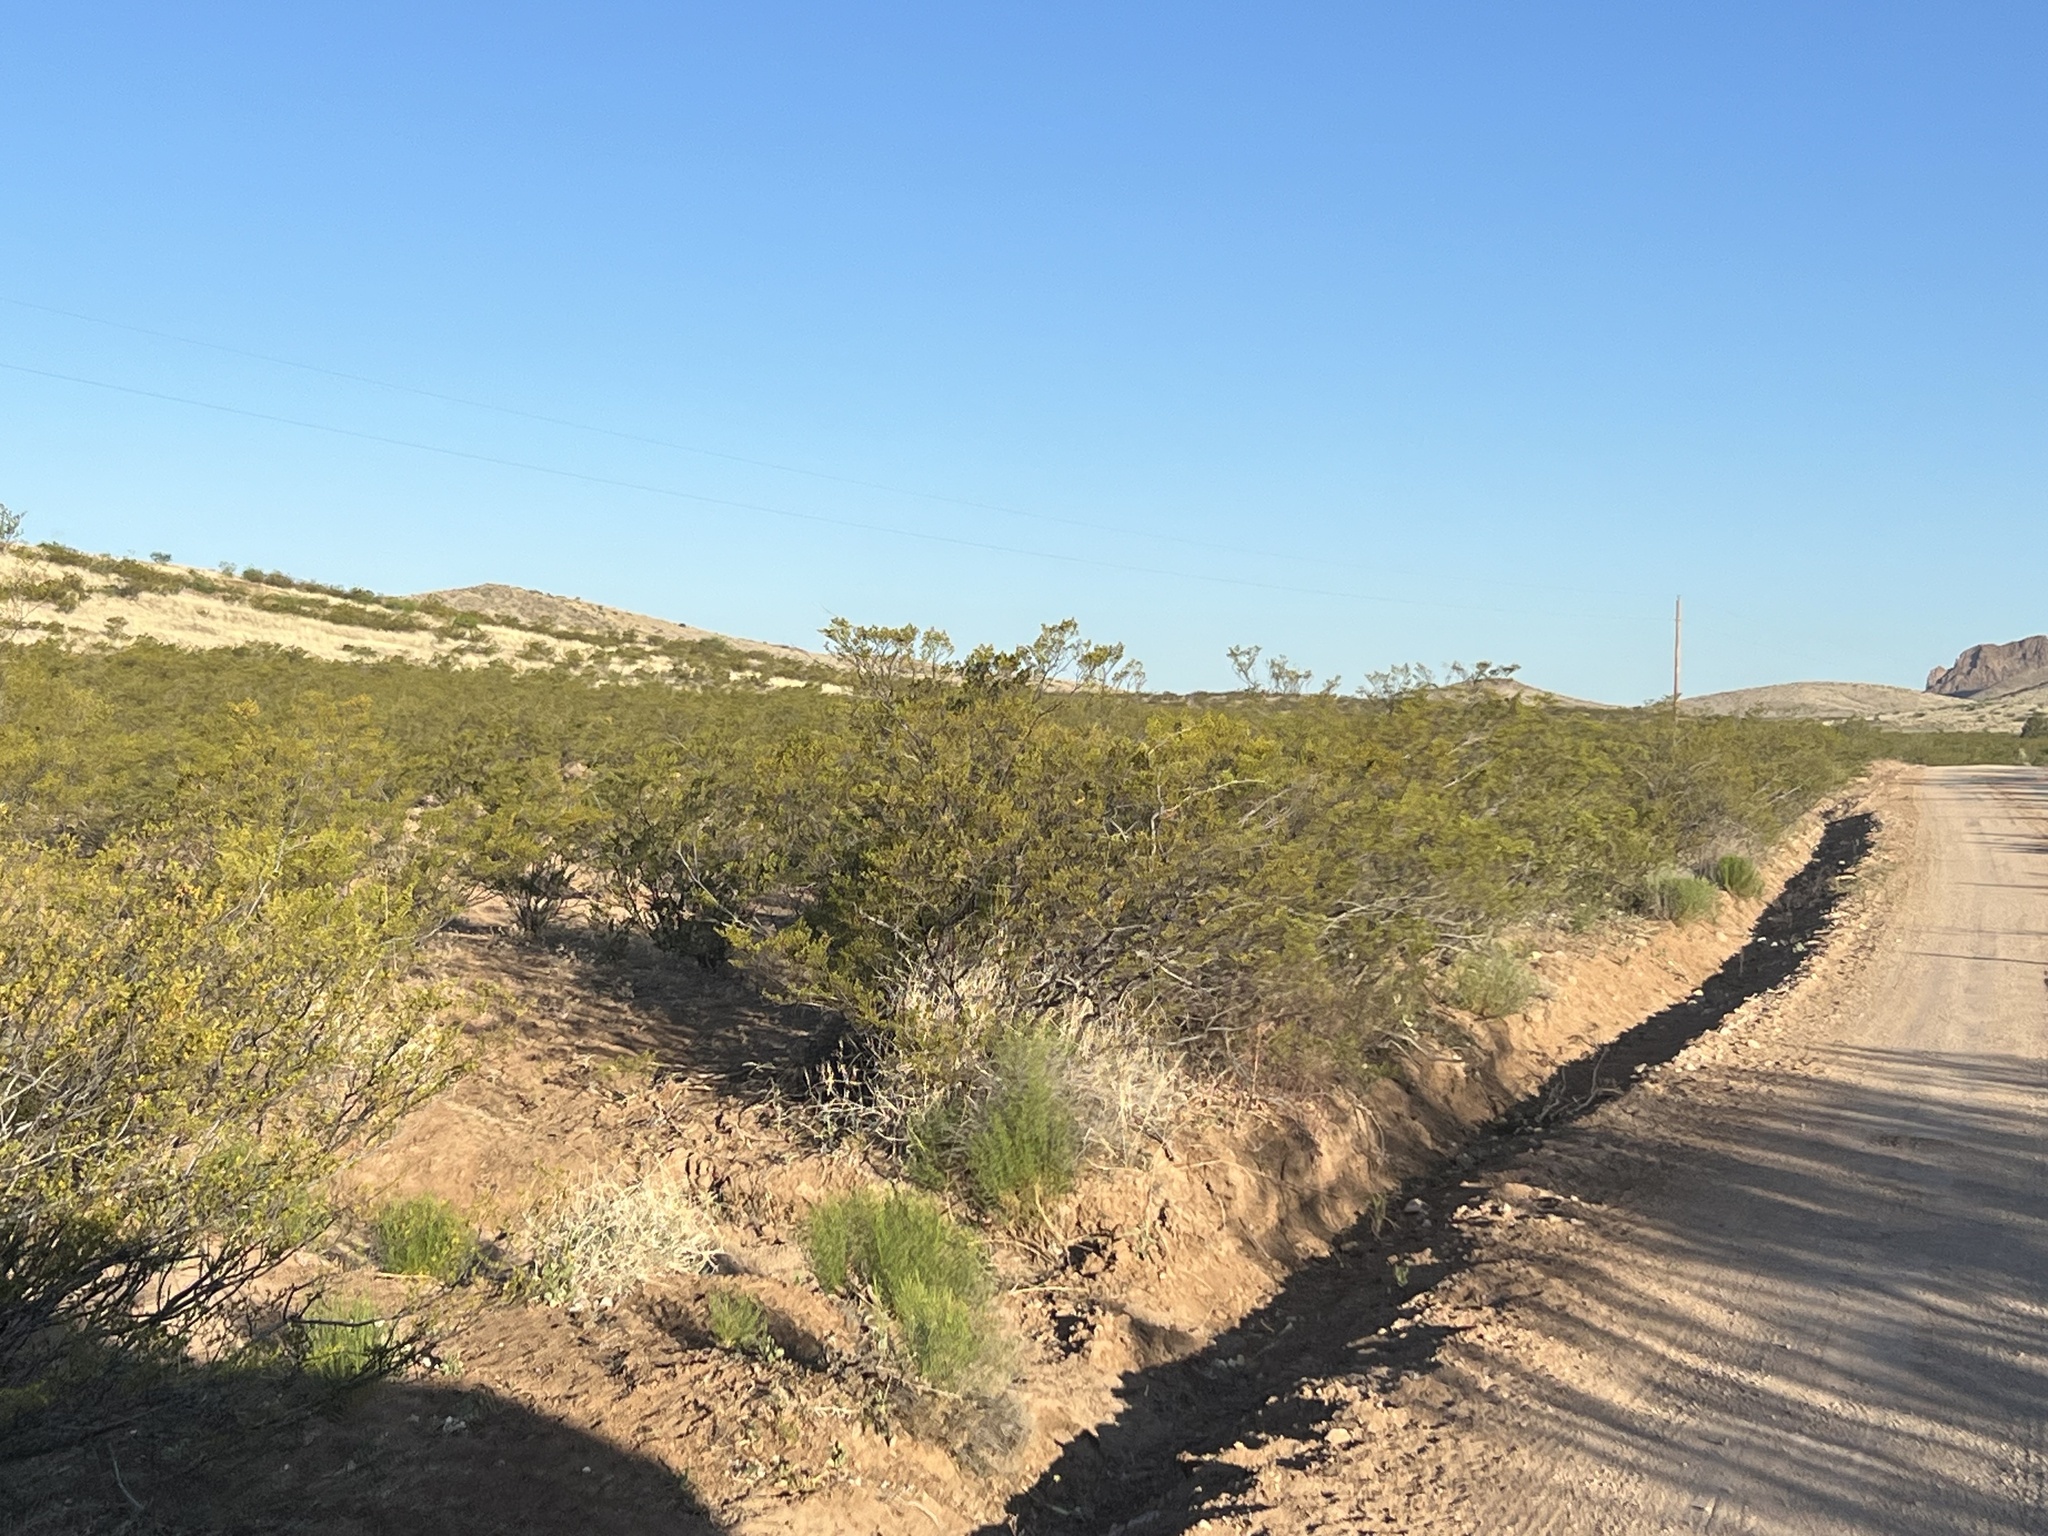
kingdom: Plantae
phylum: Tracheophyta
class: Magnoliopsida
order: Zygophyllales
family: Zygophyllaceae
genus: Larrea
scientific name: Larrea tridentata
